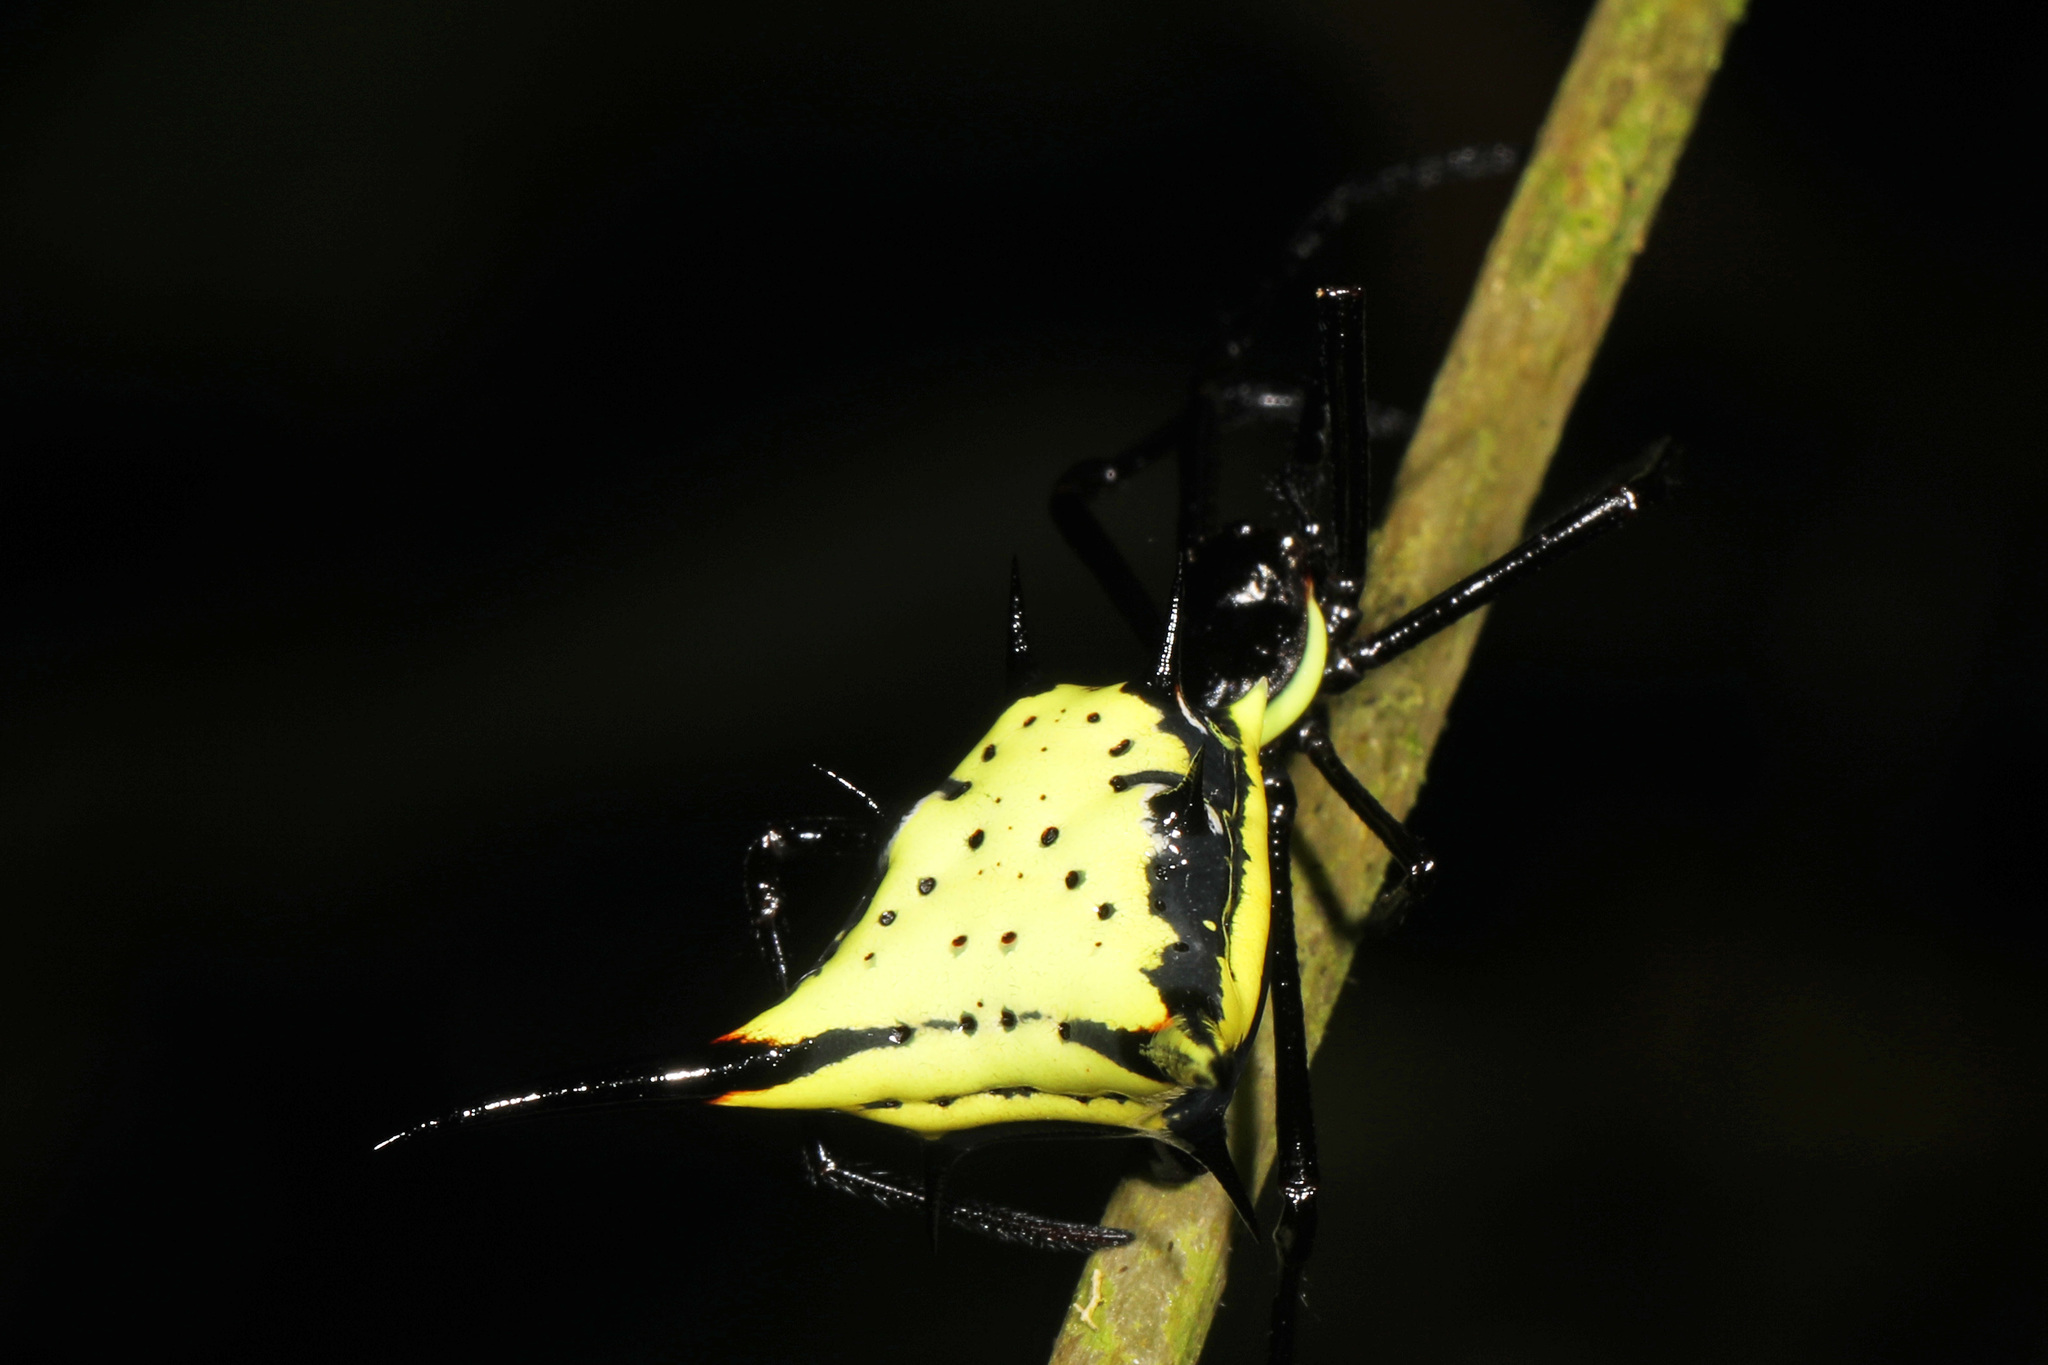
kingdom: Animalia
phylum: Arthropoda
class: Arachnida
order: Araneae
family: Araneidae
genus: Micrathena
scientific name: Micrathena schreibersi
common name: Orb weavers
